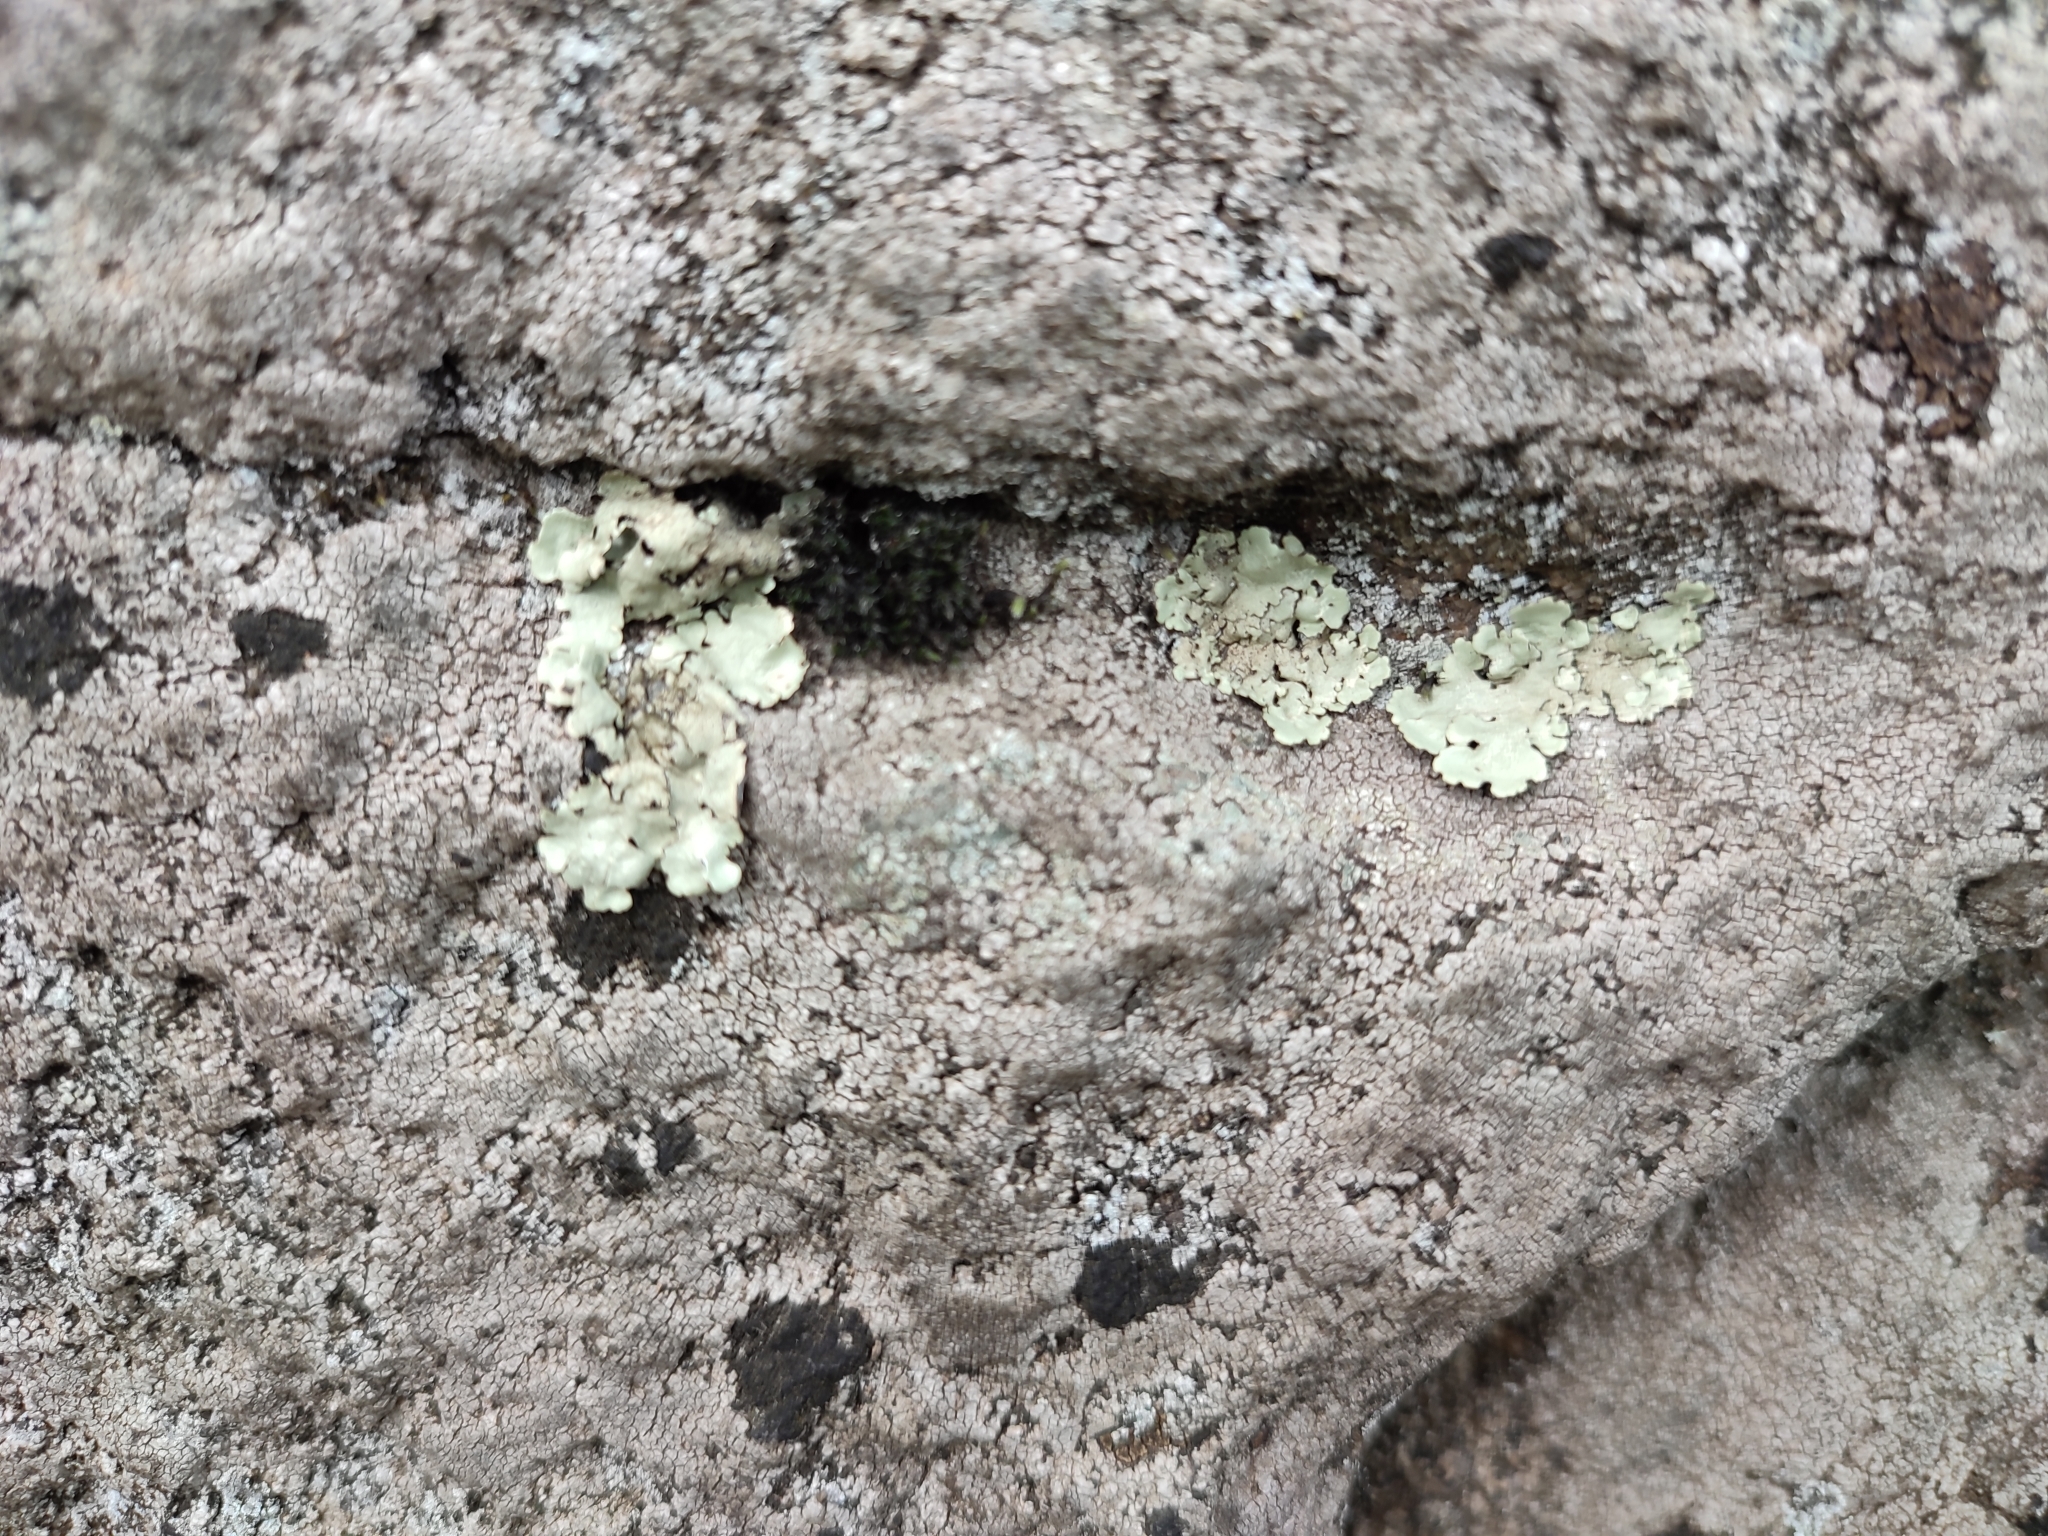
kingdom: Fungi
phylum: Ascomycota
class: Lecanoromycetes
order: Lecanorales
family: Parmeliaceae
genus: Xanthoparmelia
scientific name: Xanthoparmelia stenophylla
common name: Shingled rock shield
